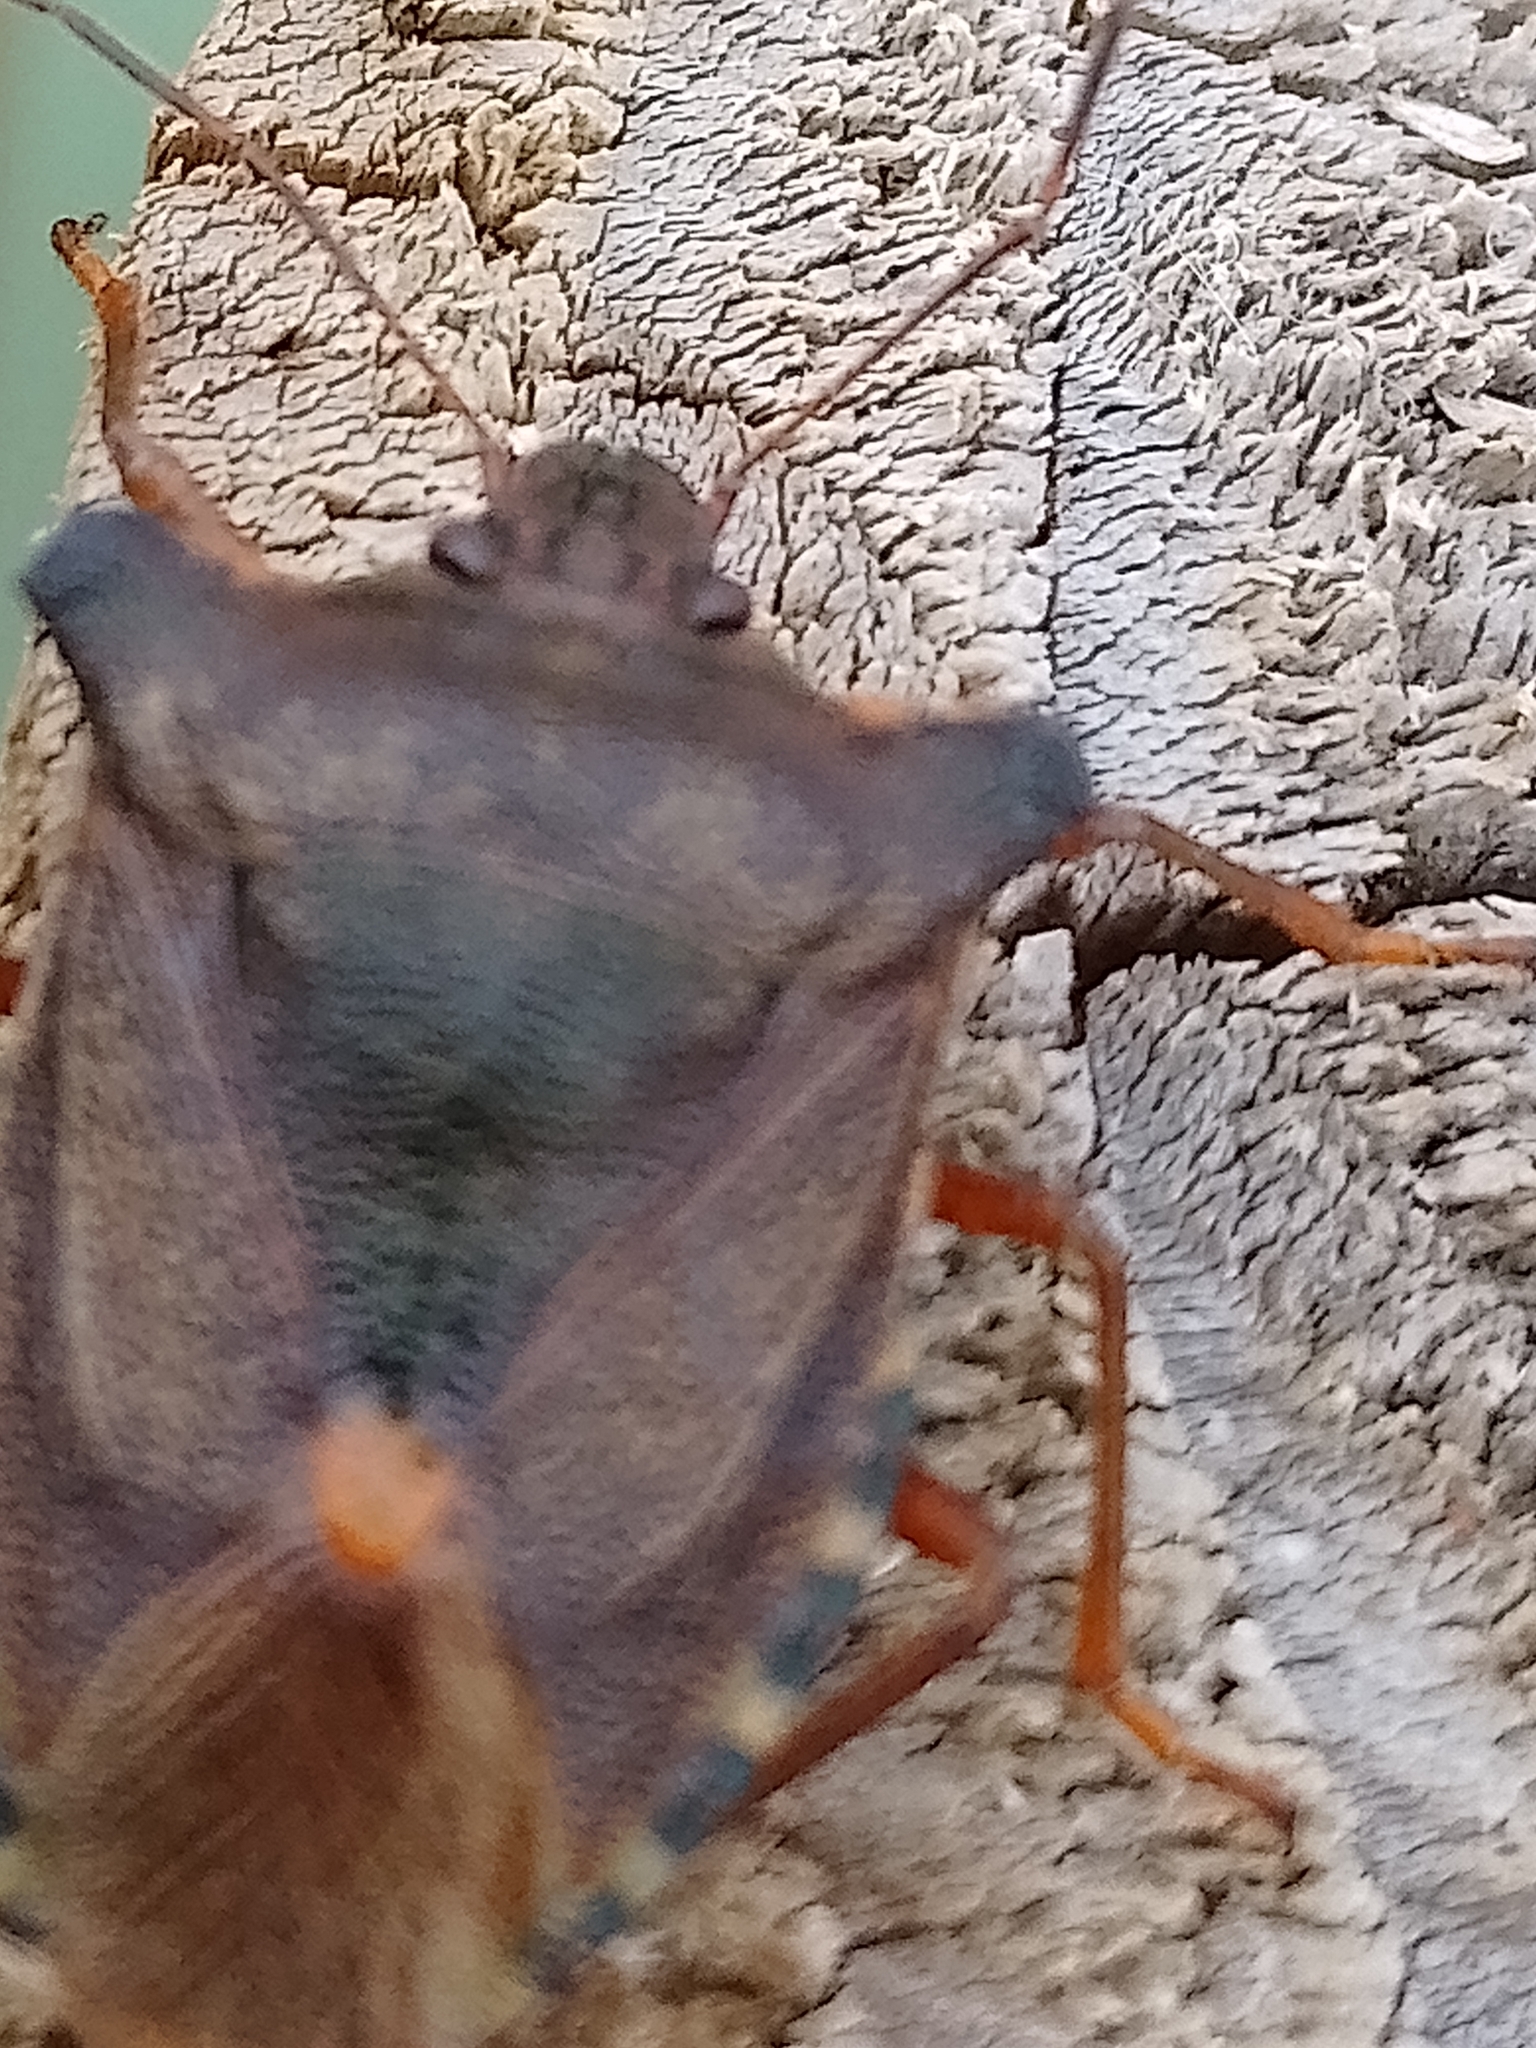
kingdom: Animalia
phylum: Arthropoda
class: Insecta
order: Hemiptera
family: Pentatomidae
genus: Pentatoma
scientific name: Pentatoma rufipes
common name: Forest bug
